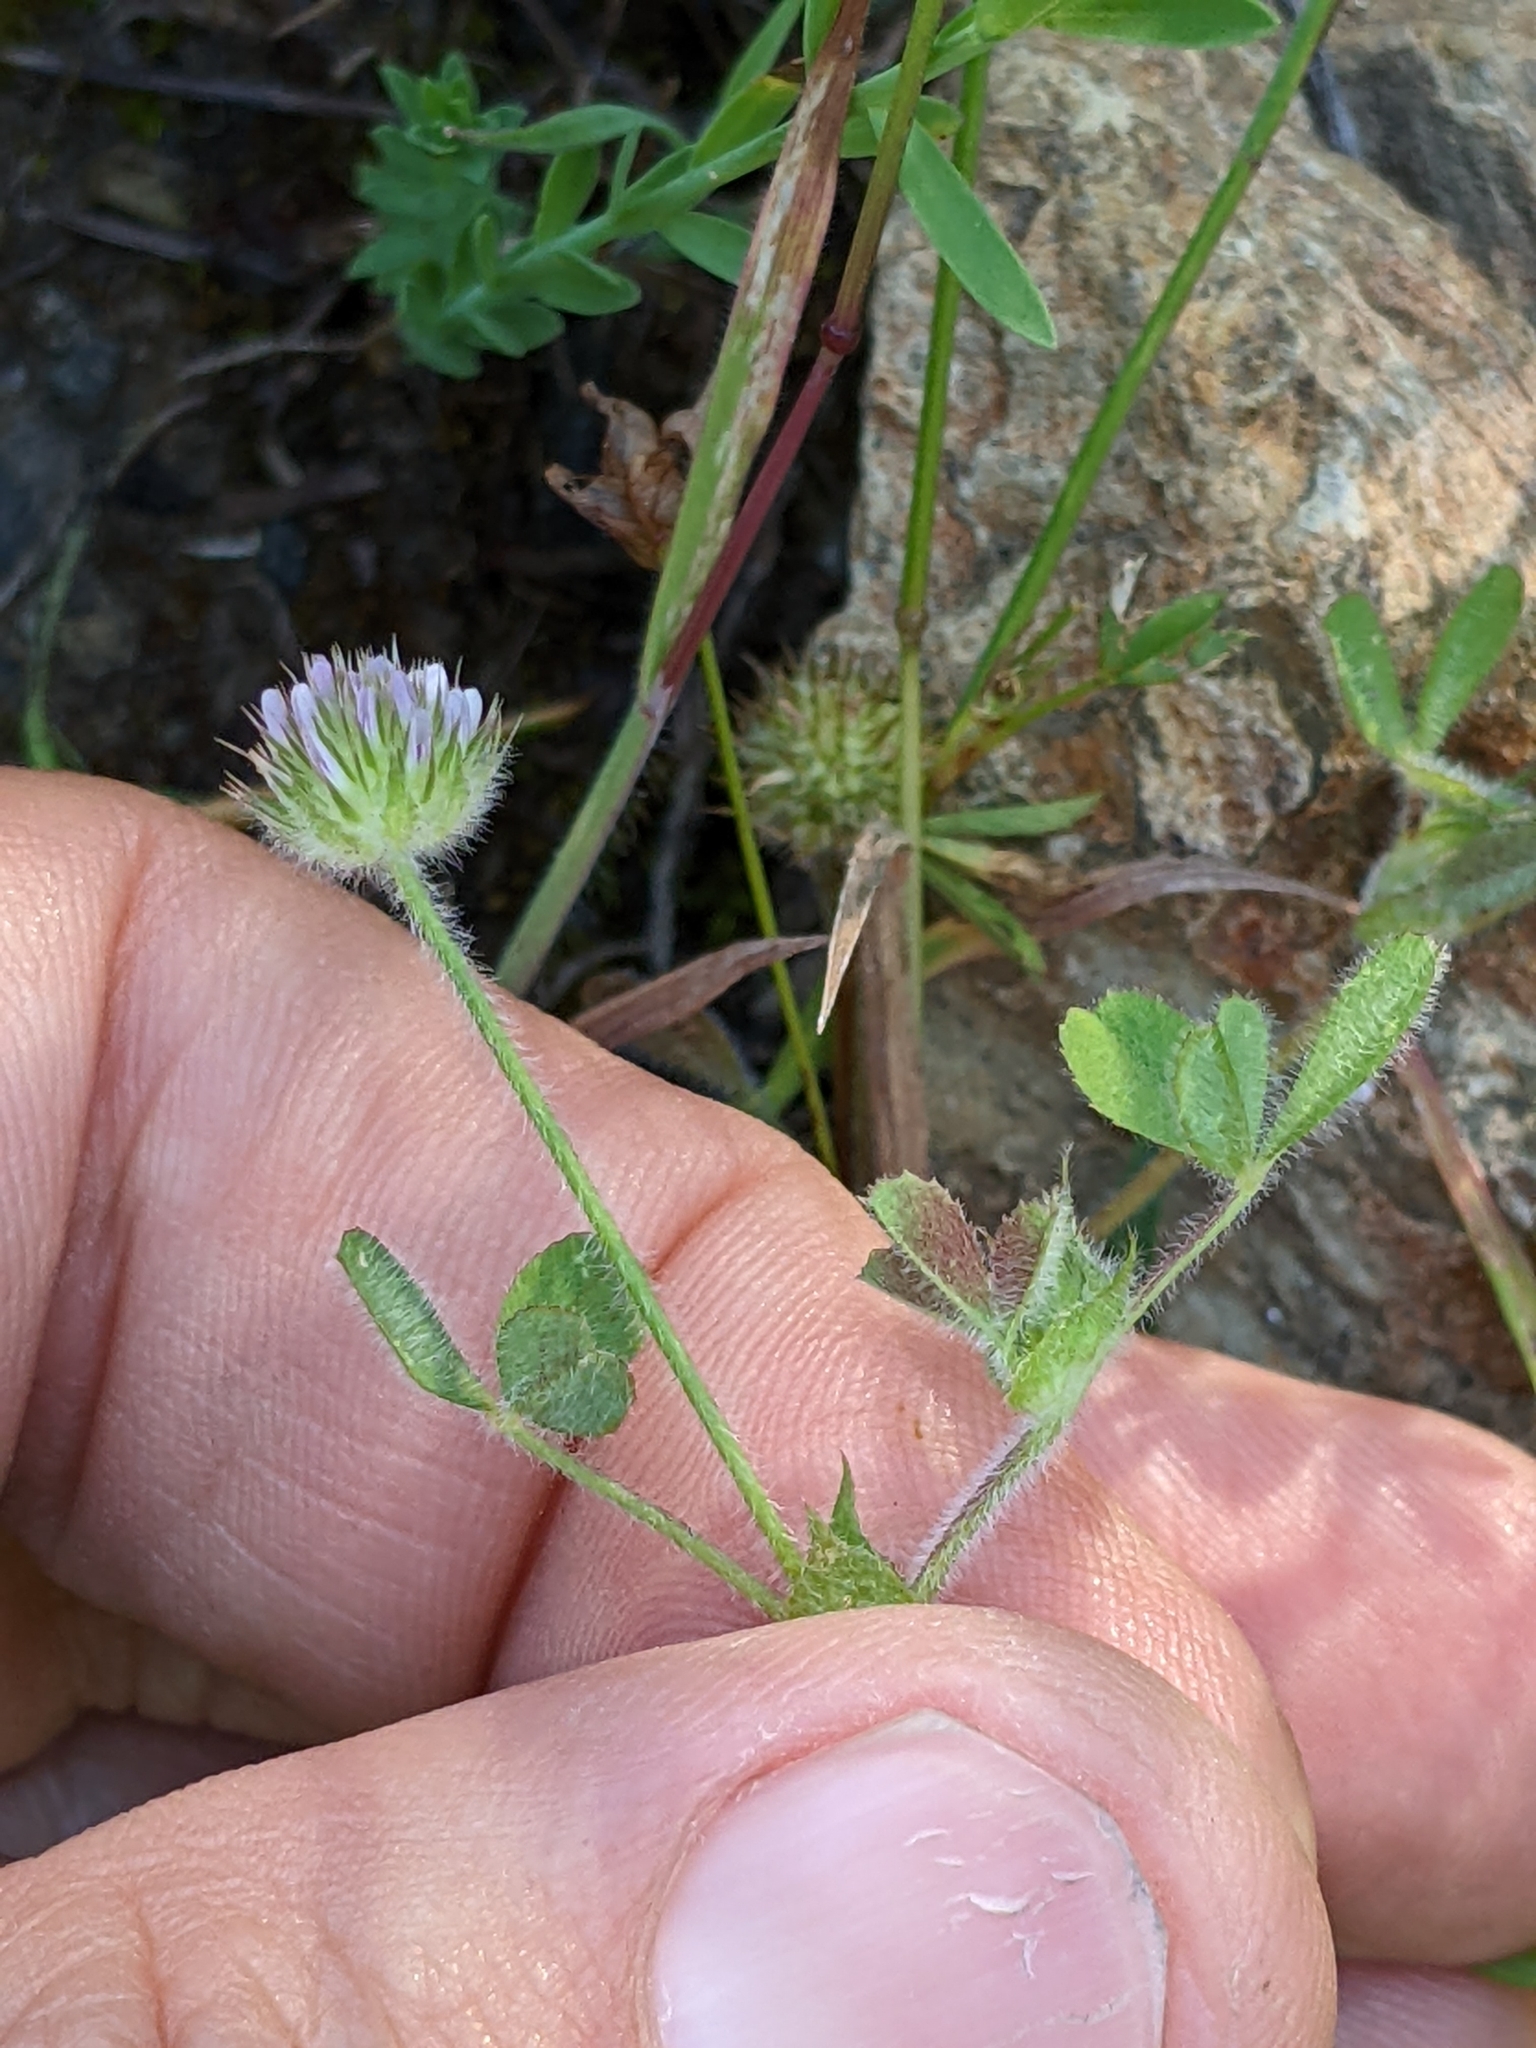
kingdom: Plantae
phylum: Tracheophyta
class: Magnoliopsida
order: Fabales
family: Fabaceae
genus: Trifolium
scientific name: Trifolium microcephalum
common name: Maiden clover
